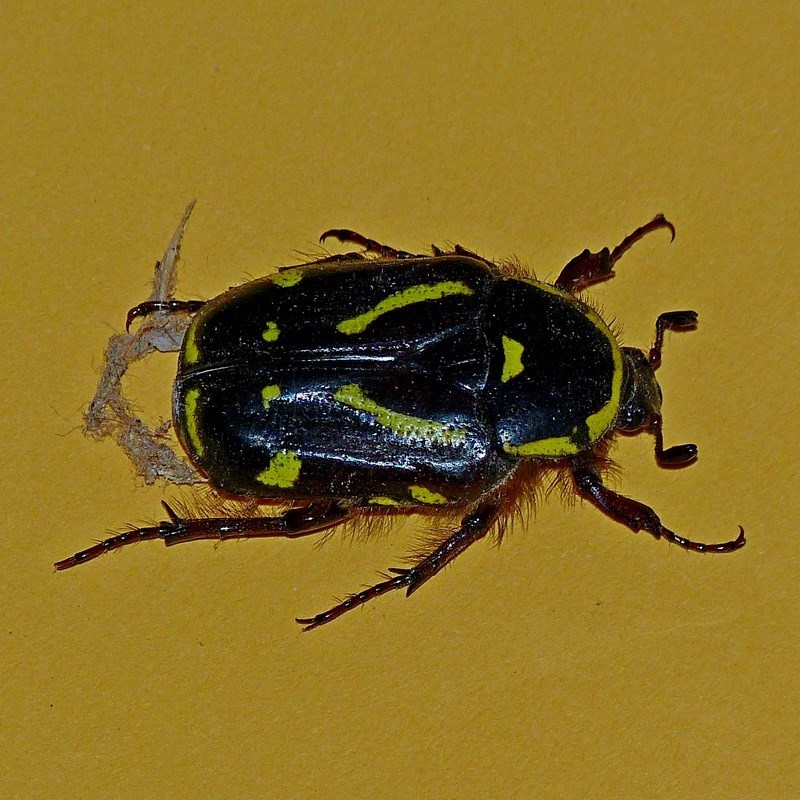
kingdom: Animalia
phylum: Arthropoda
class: Insecta
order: Coleoptera
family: Scarabaeidae
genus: Chlorobapta
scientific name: Chlorobapta frontalis
